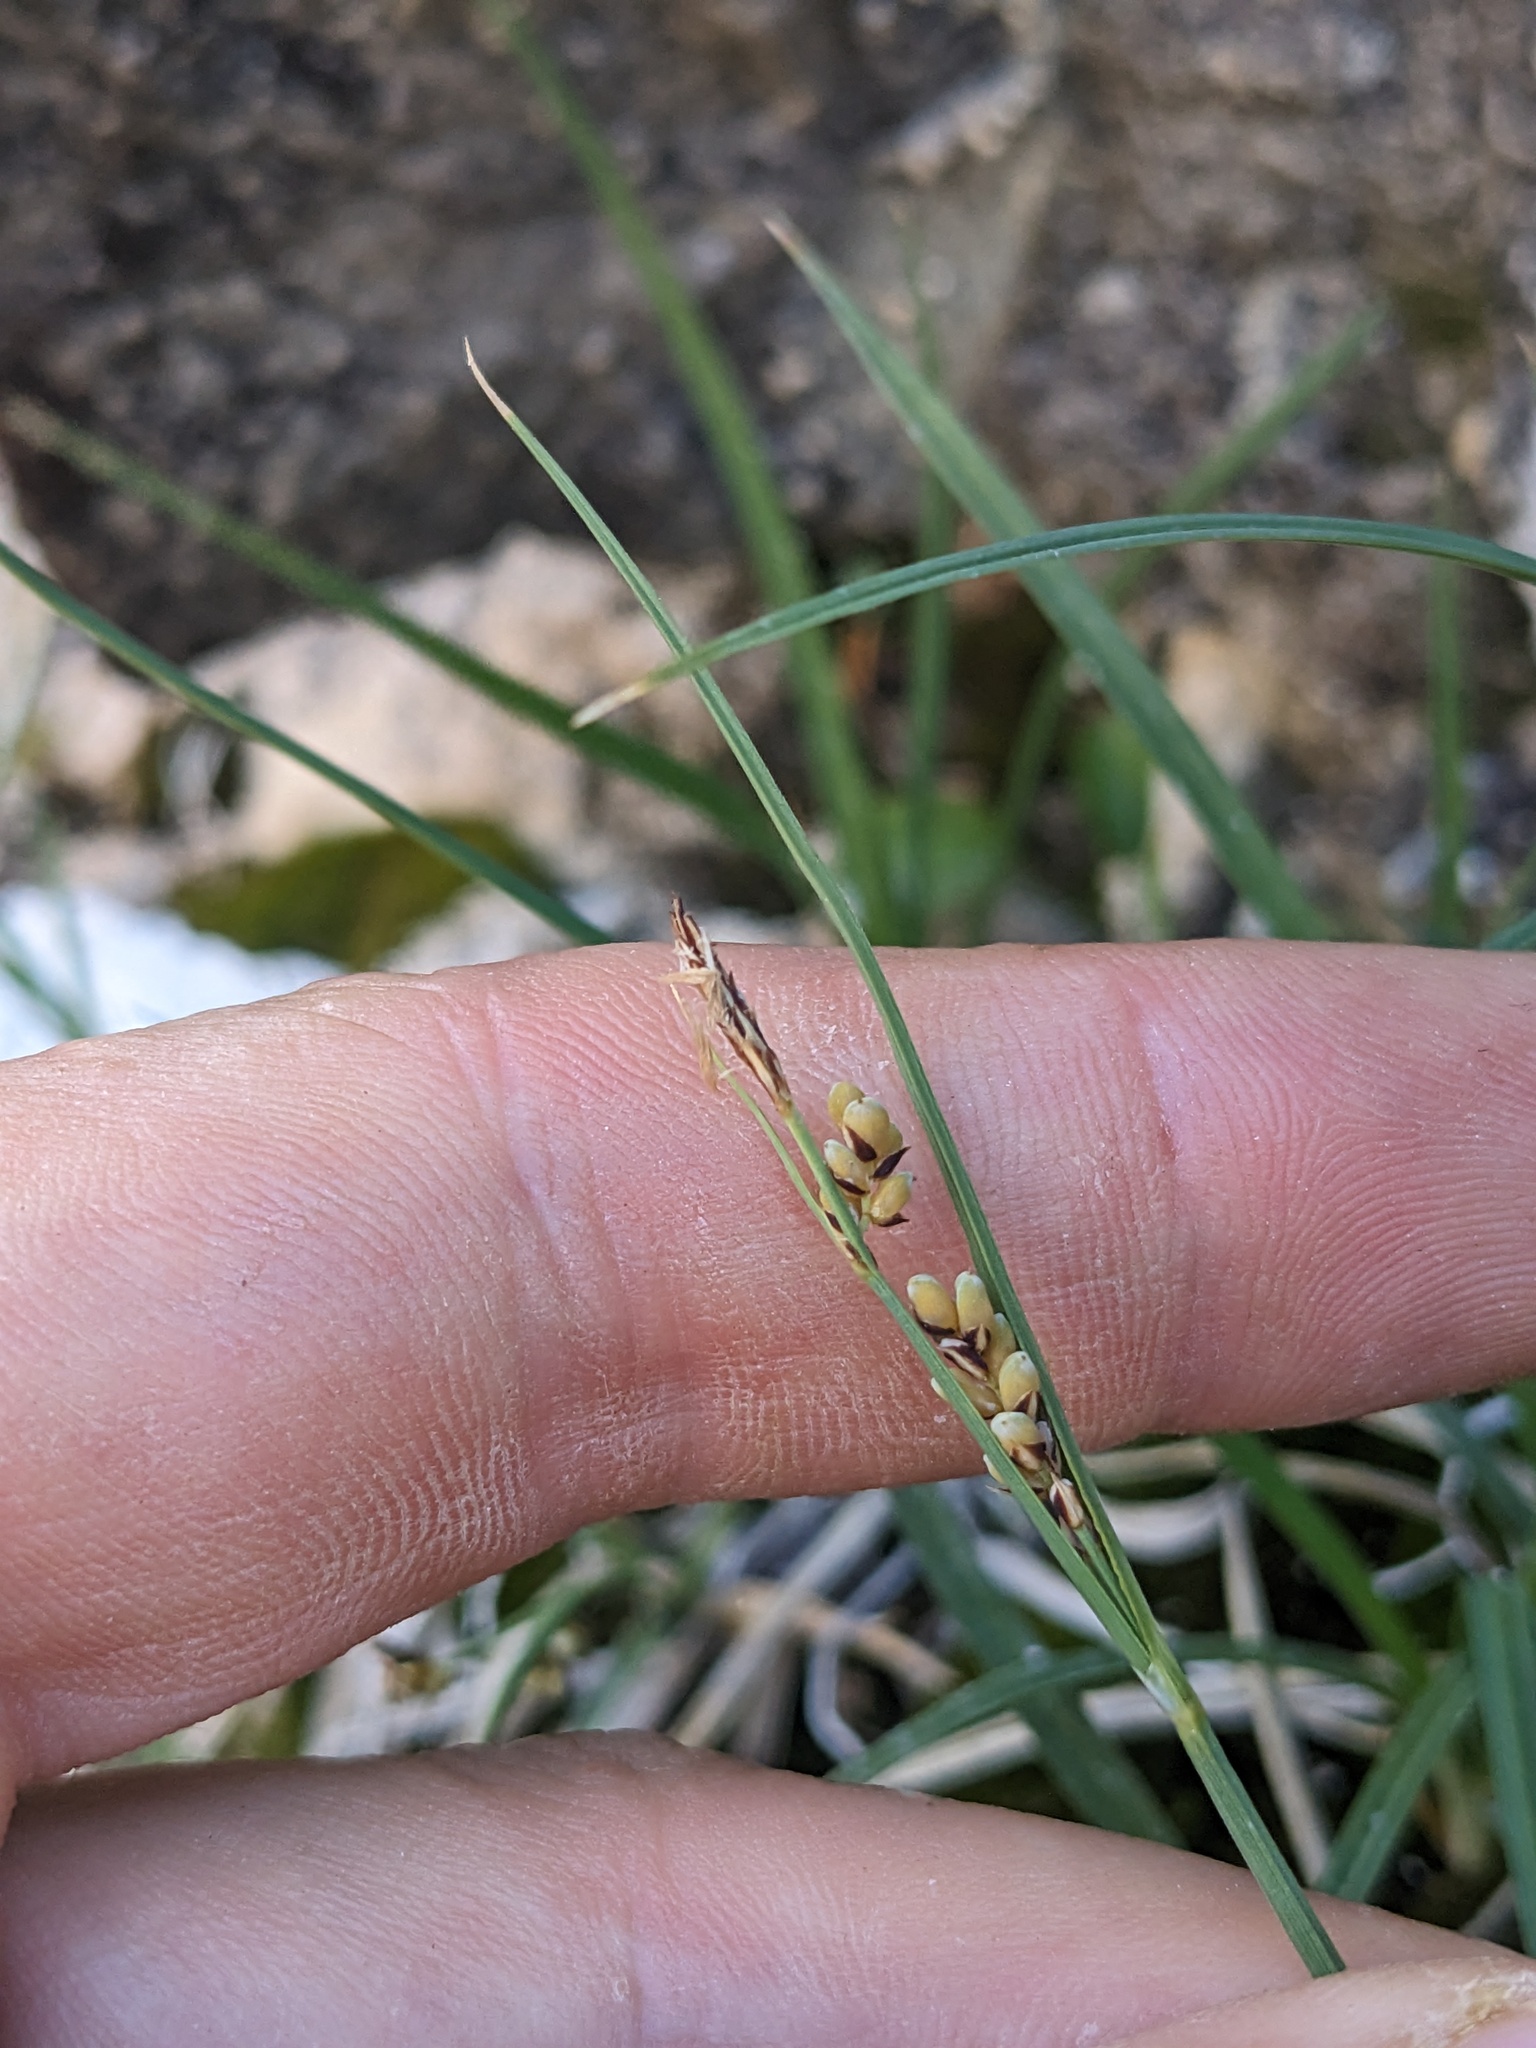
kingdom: Plantae
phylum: Tracheophyta
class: Liliopsida
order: Poales
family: Cyperaceae
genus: Carex
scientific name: Carex aurea
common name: Golden sedge
